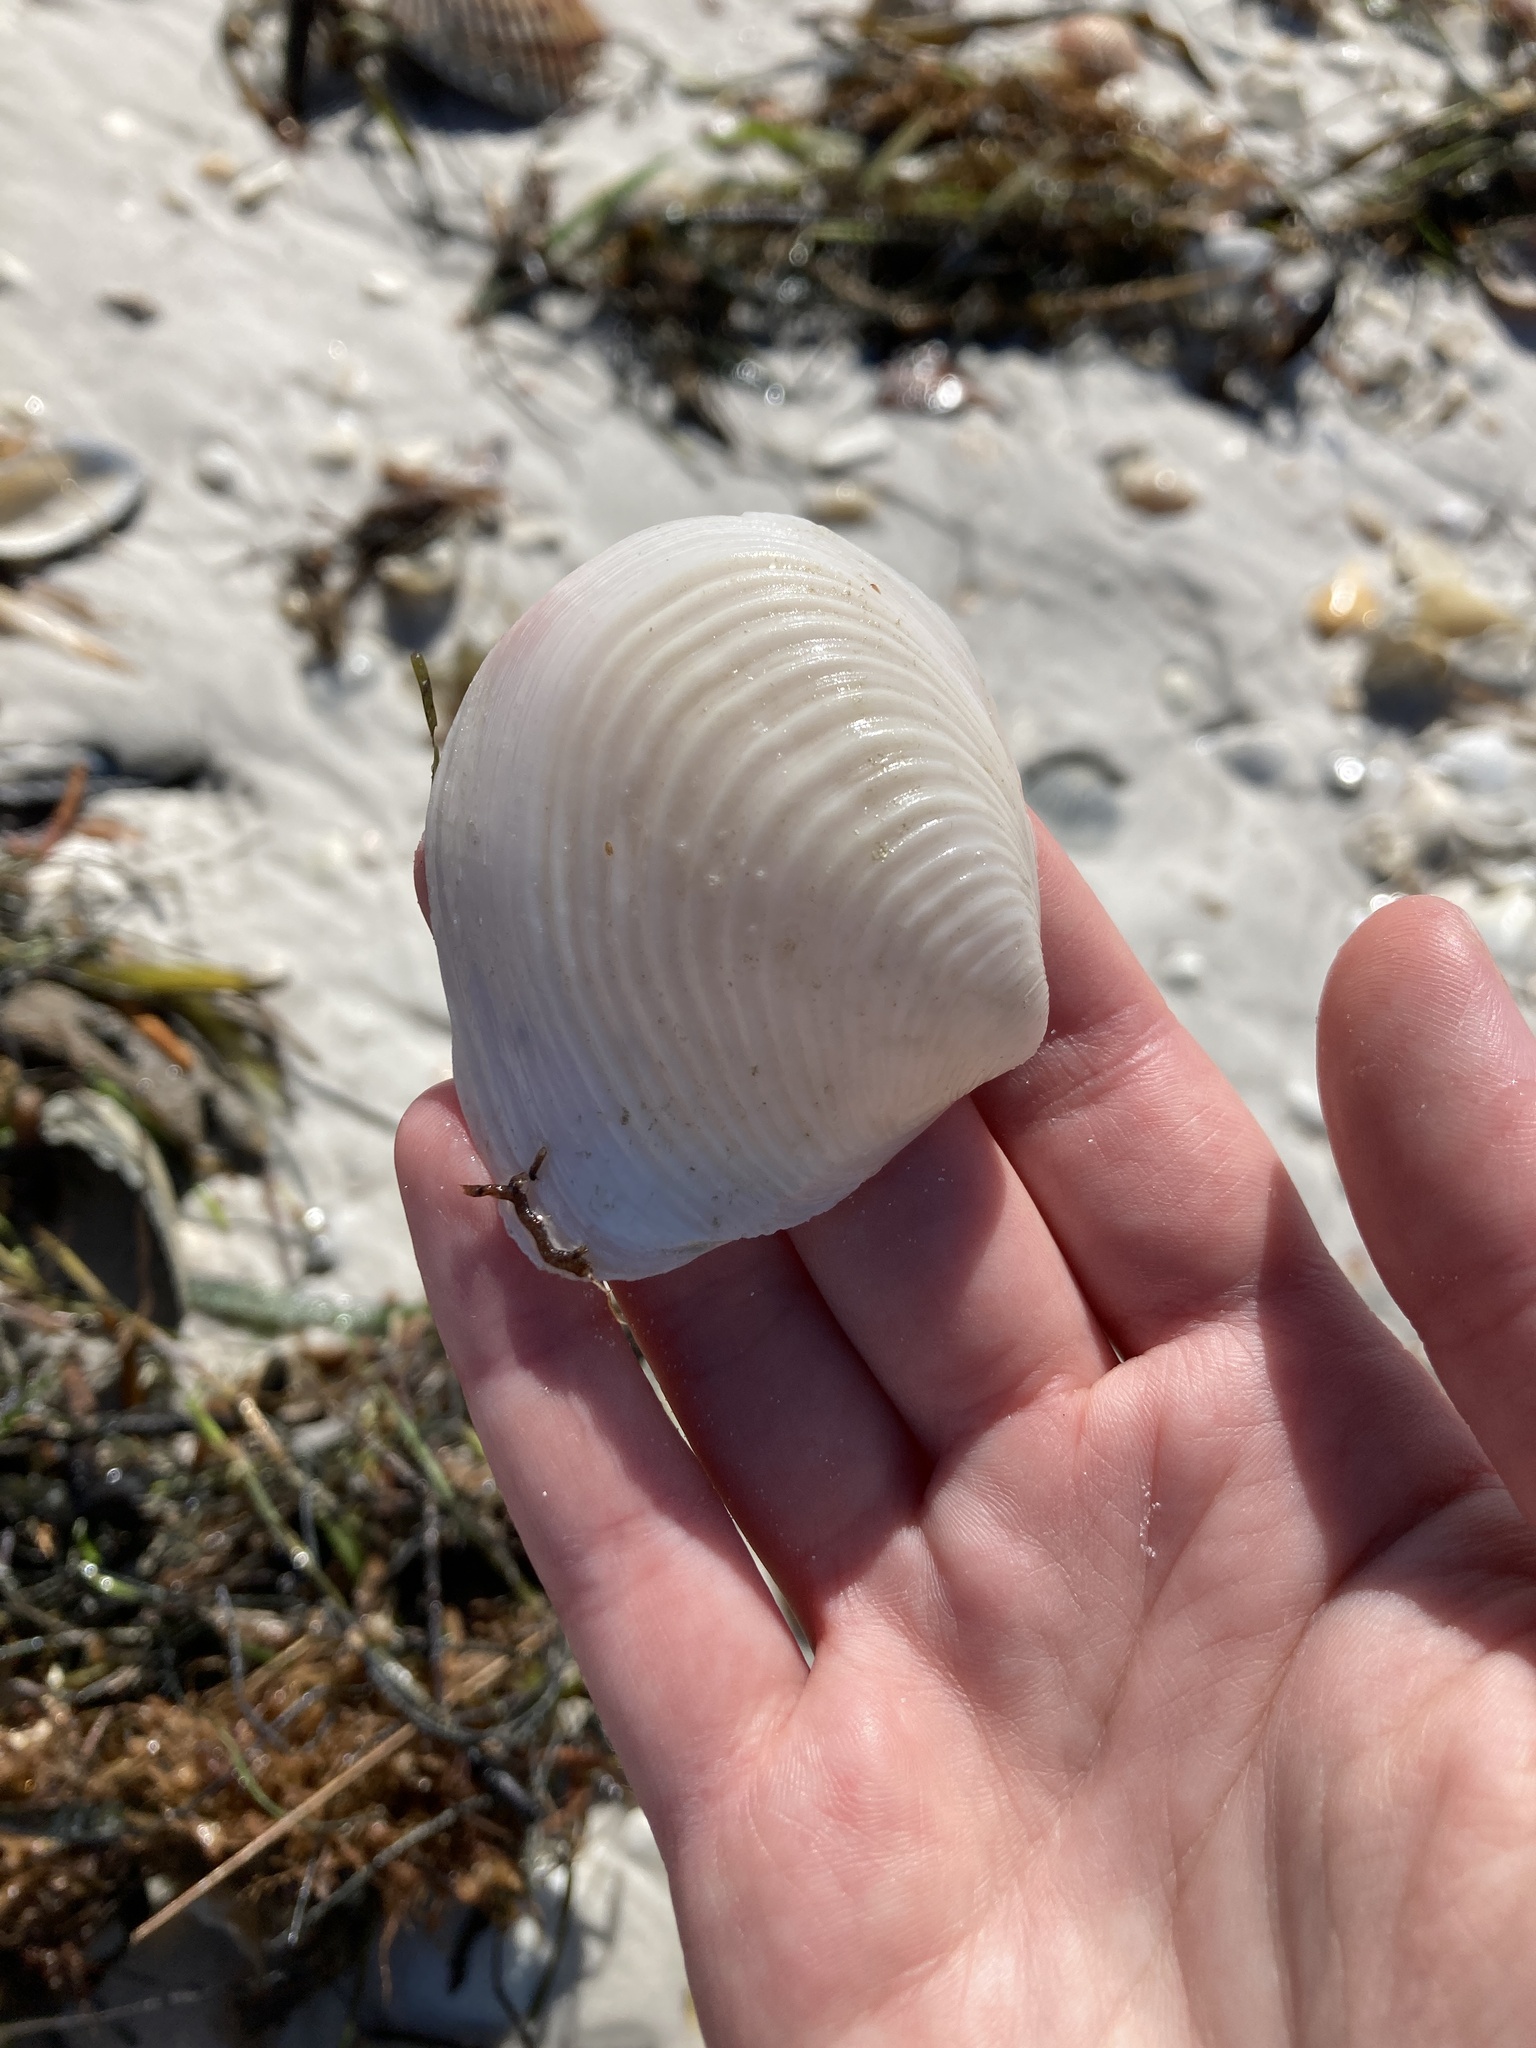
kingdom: Animalia
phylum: Mollusca
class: Bivalvia
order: Venerida
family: Anatinellidae
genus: Raeta
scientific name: Raeta plicatella
